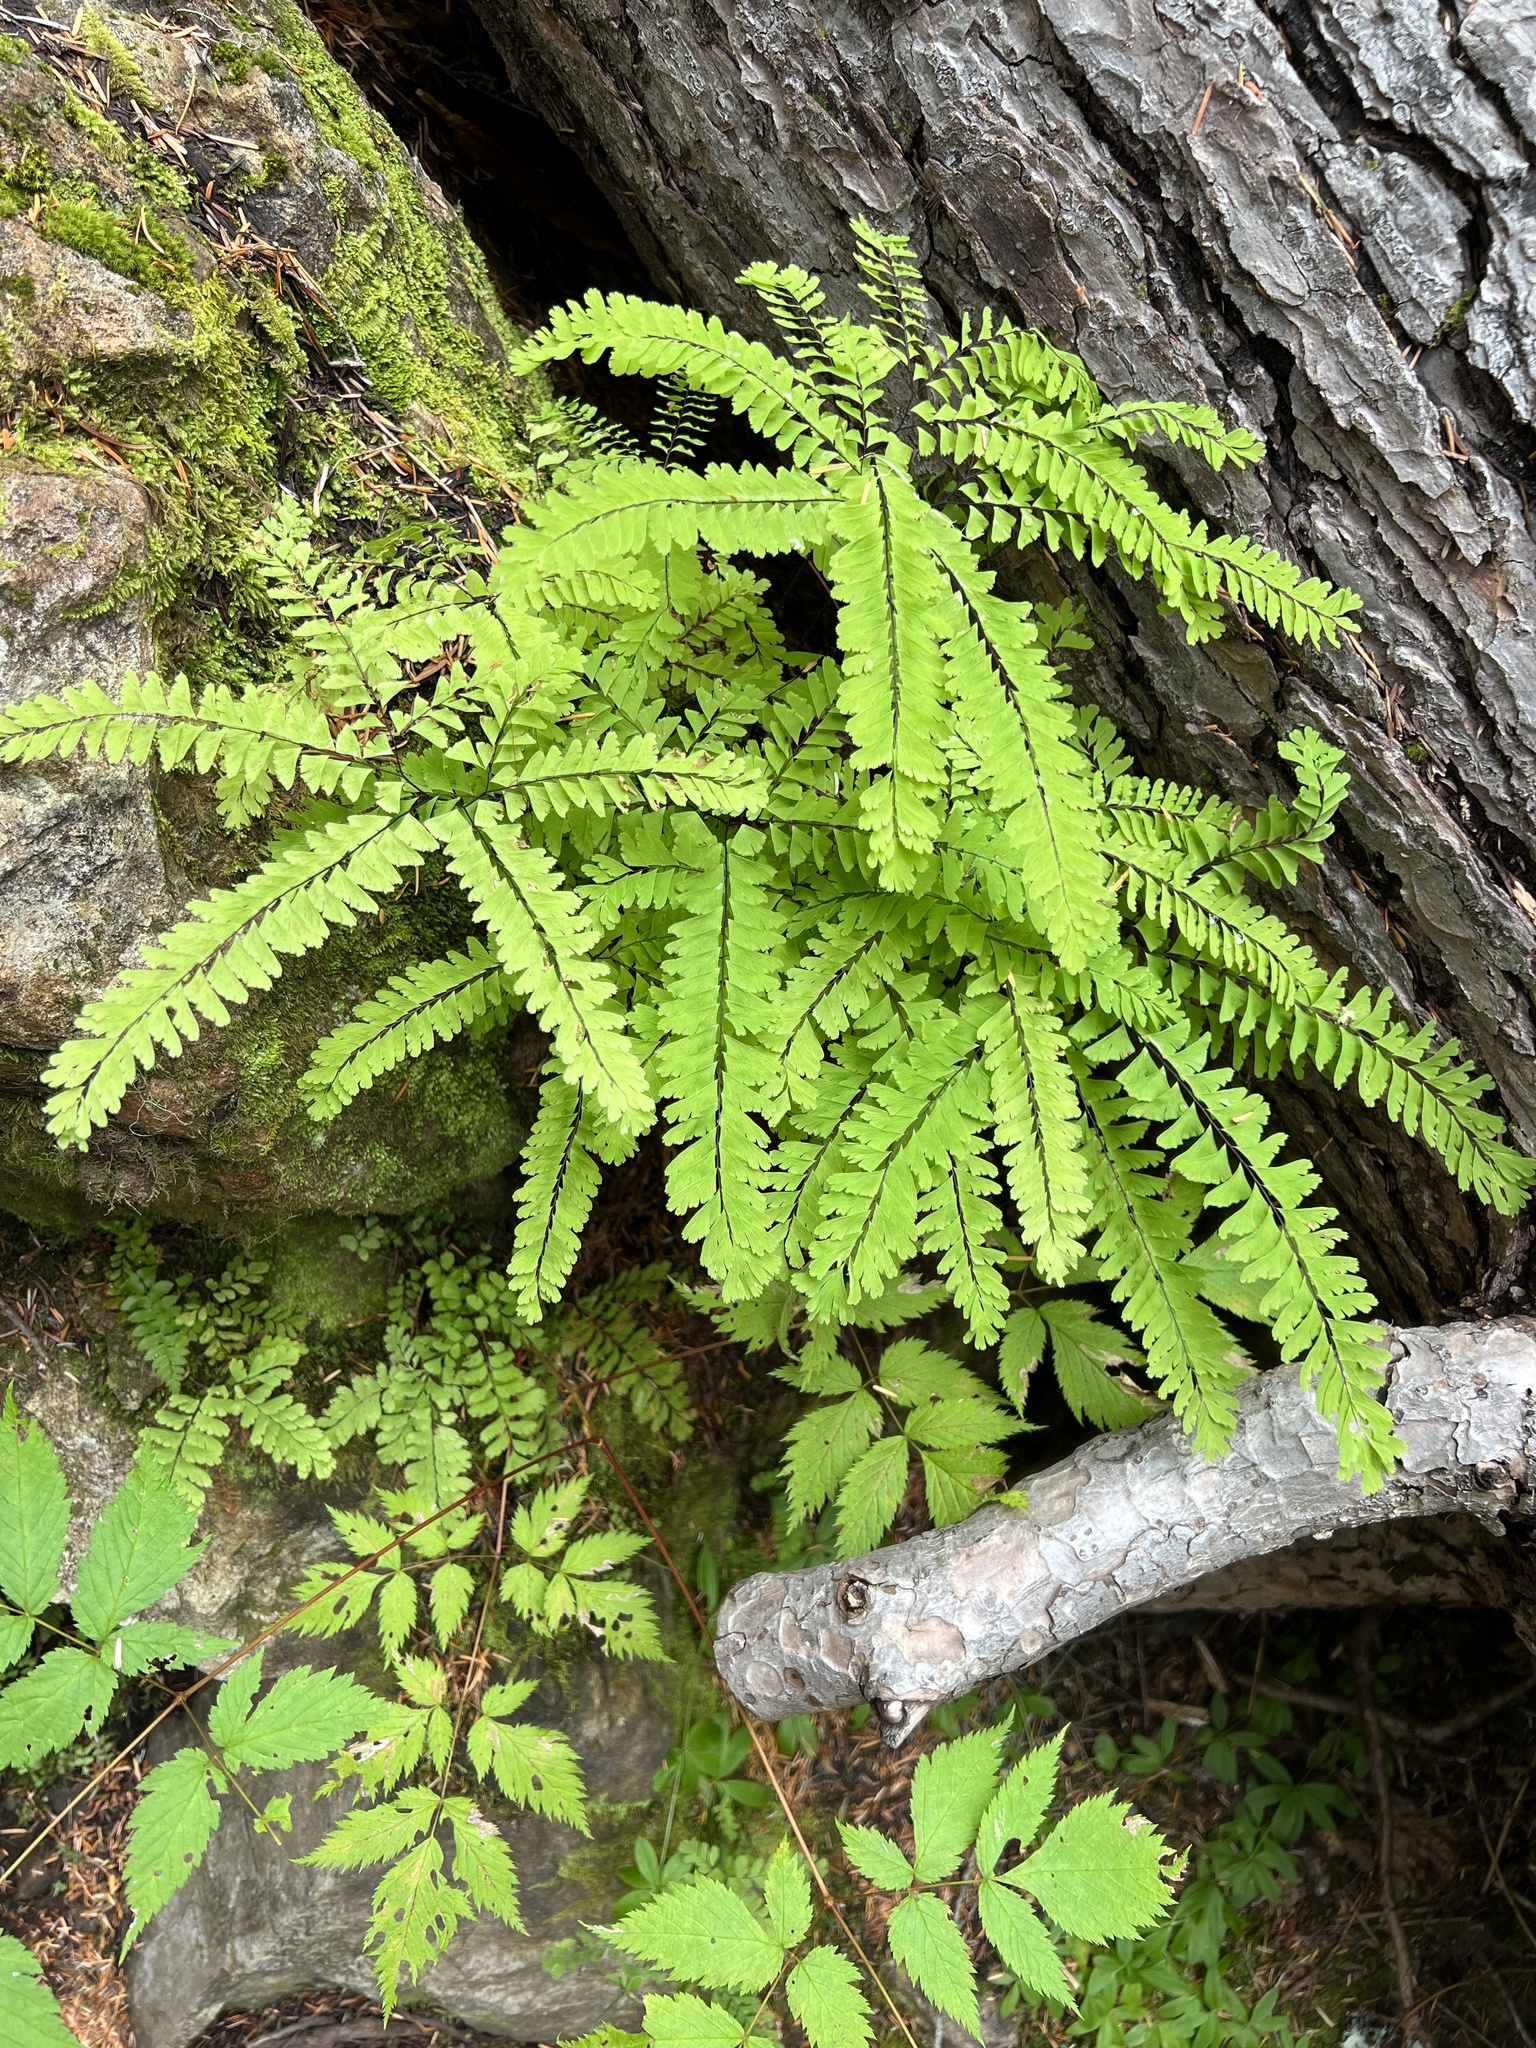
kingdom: Plantae
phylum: Tracheophyta
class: Polypodiopsida
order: Polypodiales
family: Pteridaceae
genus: Adiantum
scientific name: Adiantum aleuticum
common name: Aleutian maidenhair fern
